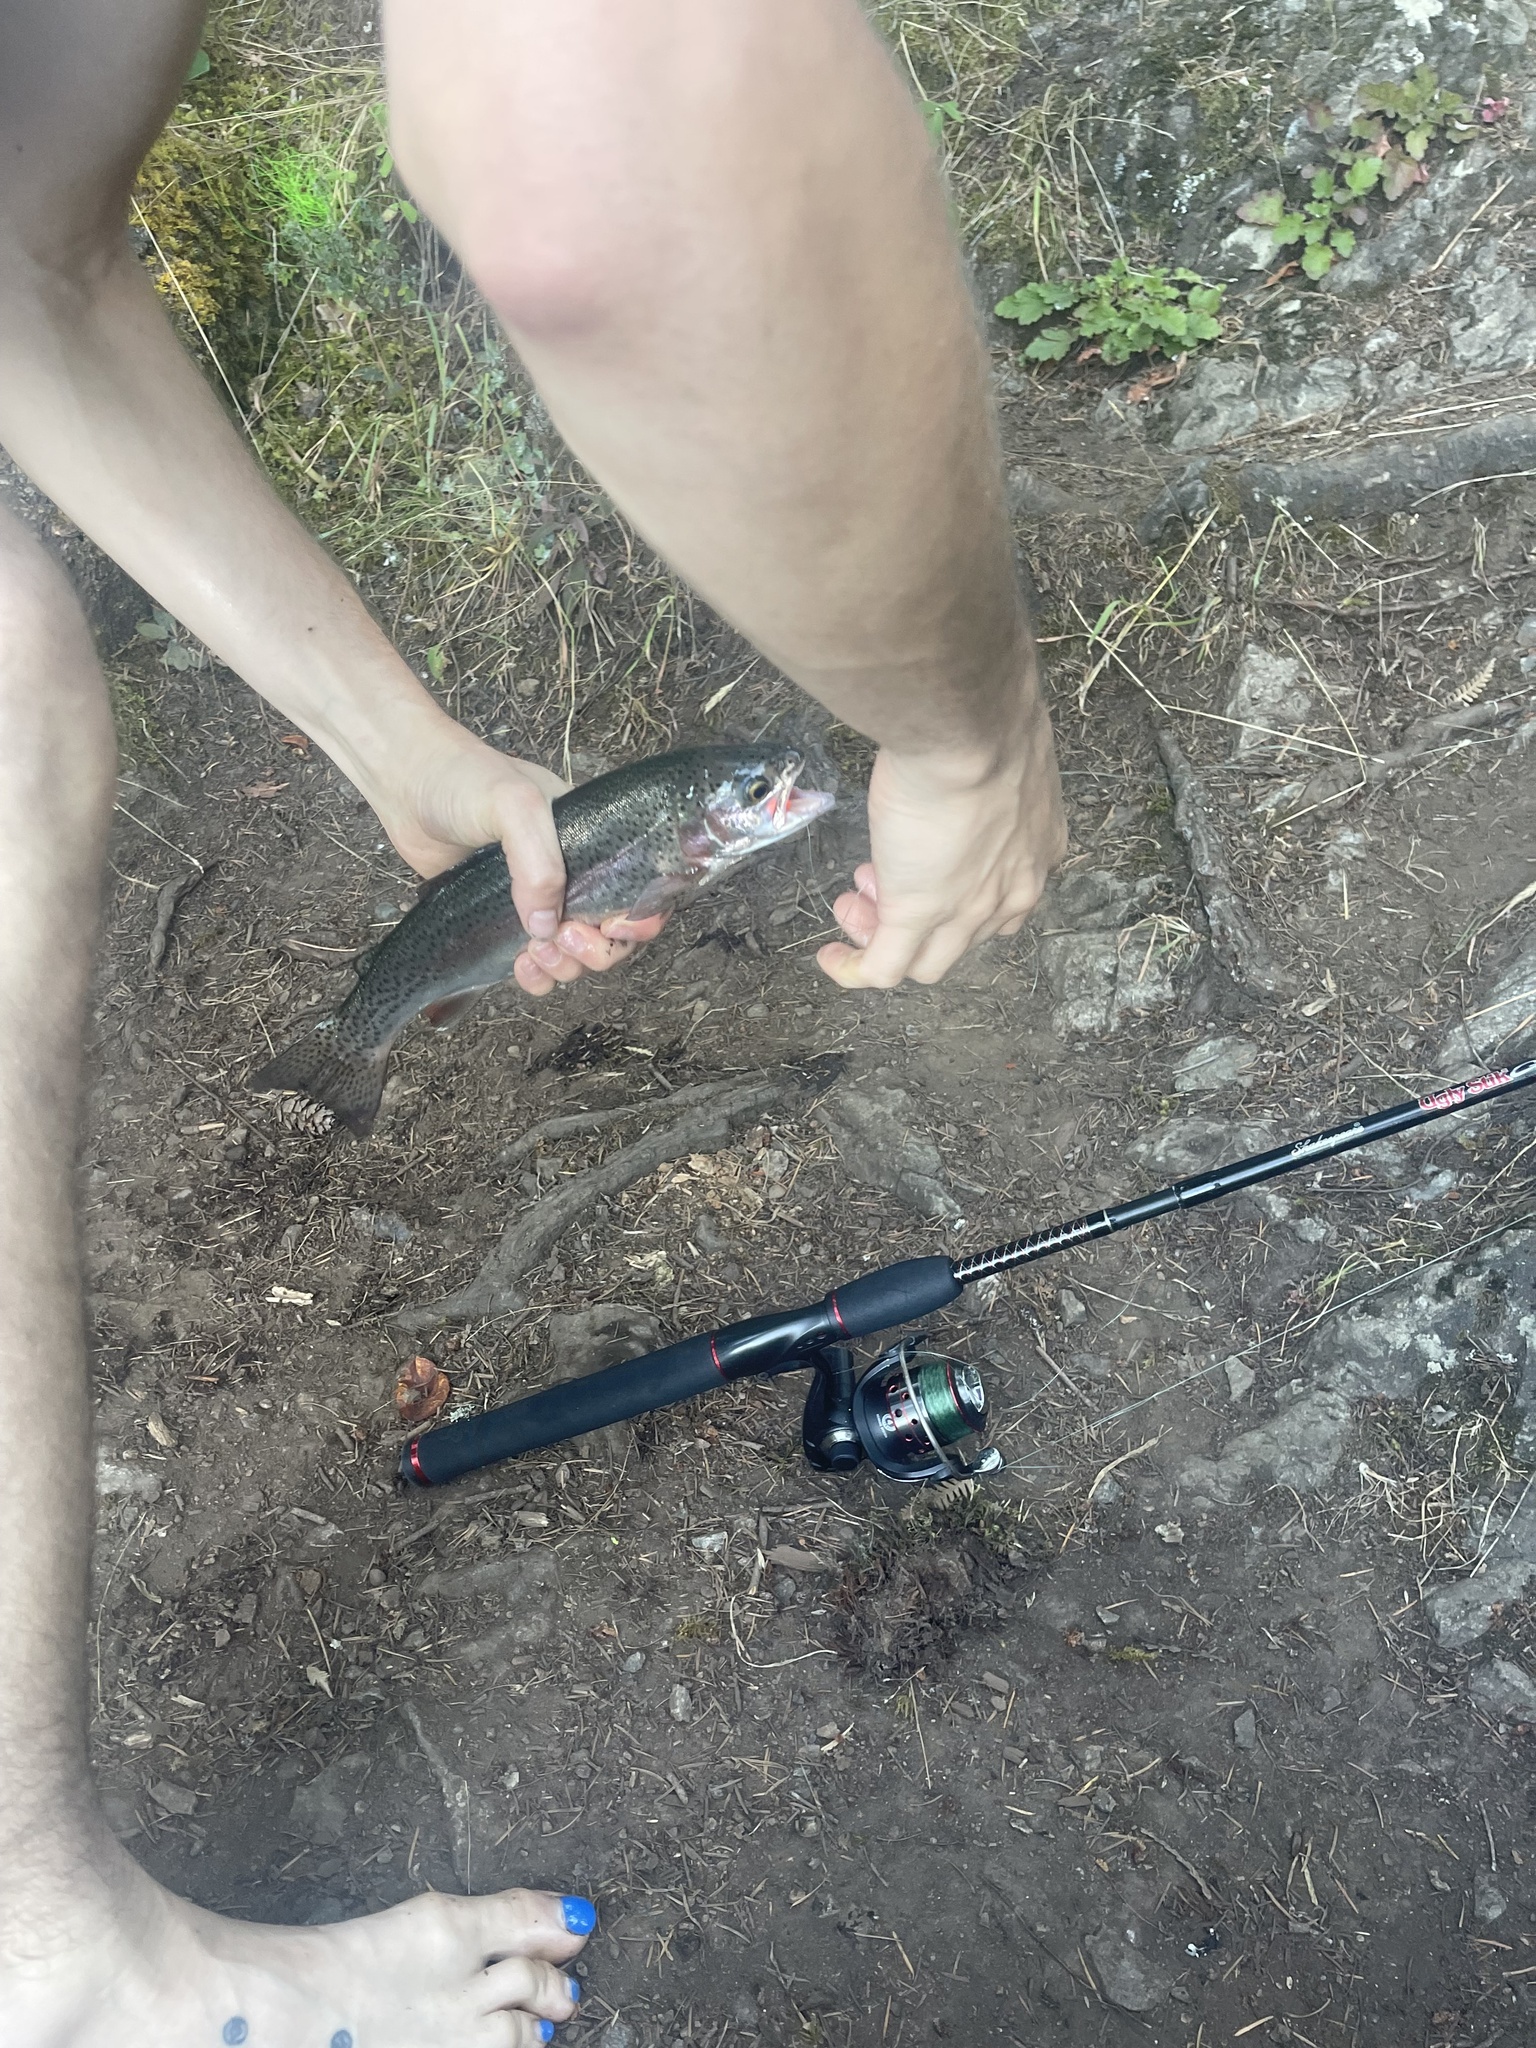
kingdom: Animalia
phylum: Chordata
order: Salmoniformes
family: Salmonidae
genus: Oncorhynchus
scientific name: Oncorhynchus mykiss
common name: Rainbow trout
